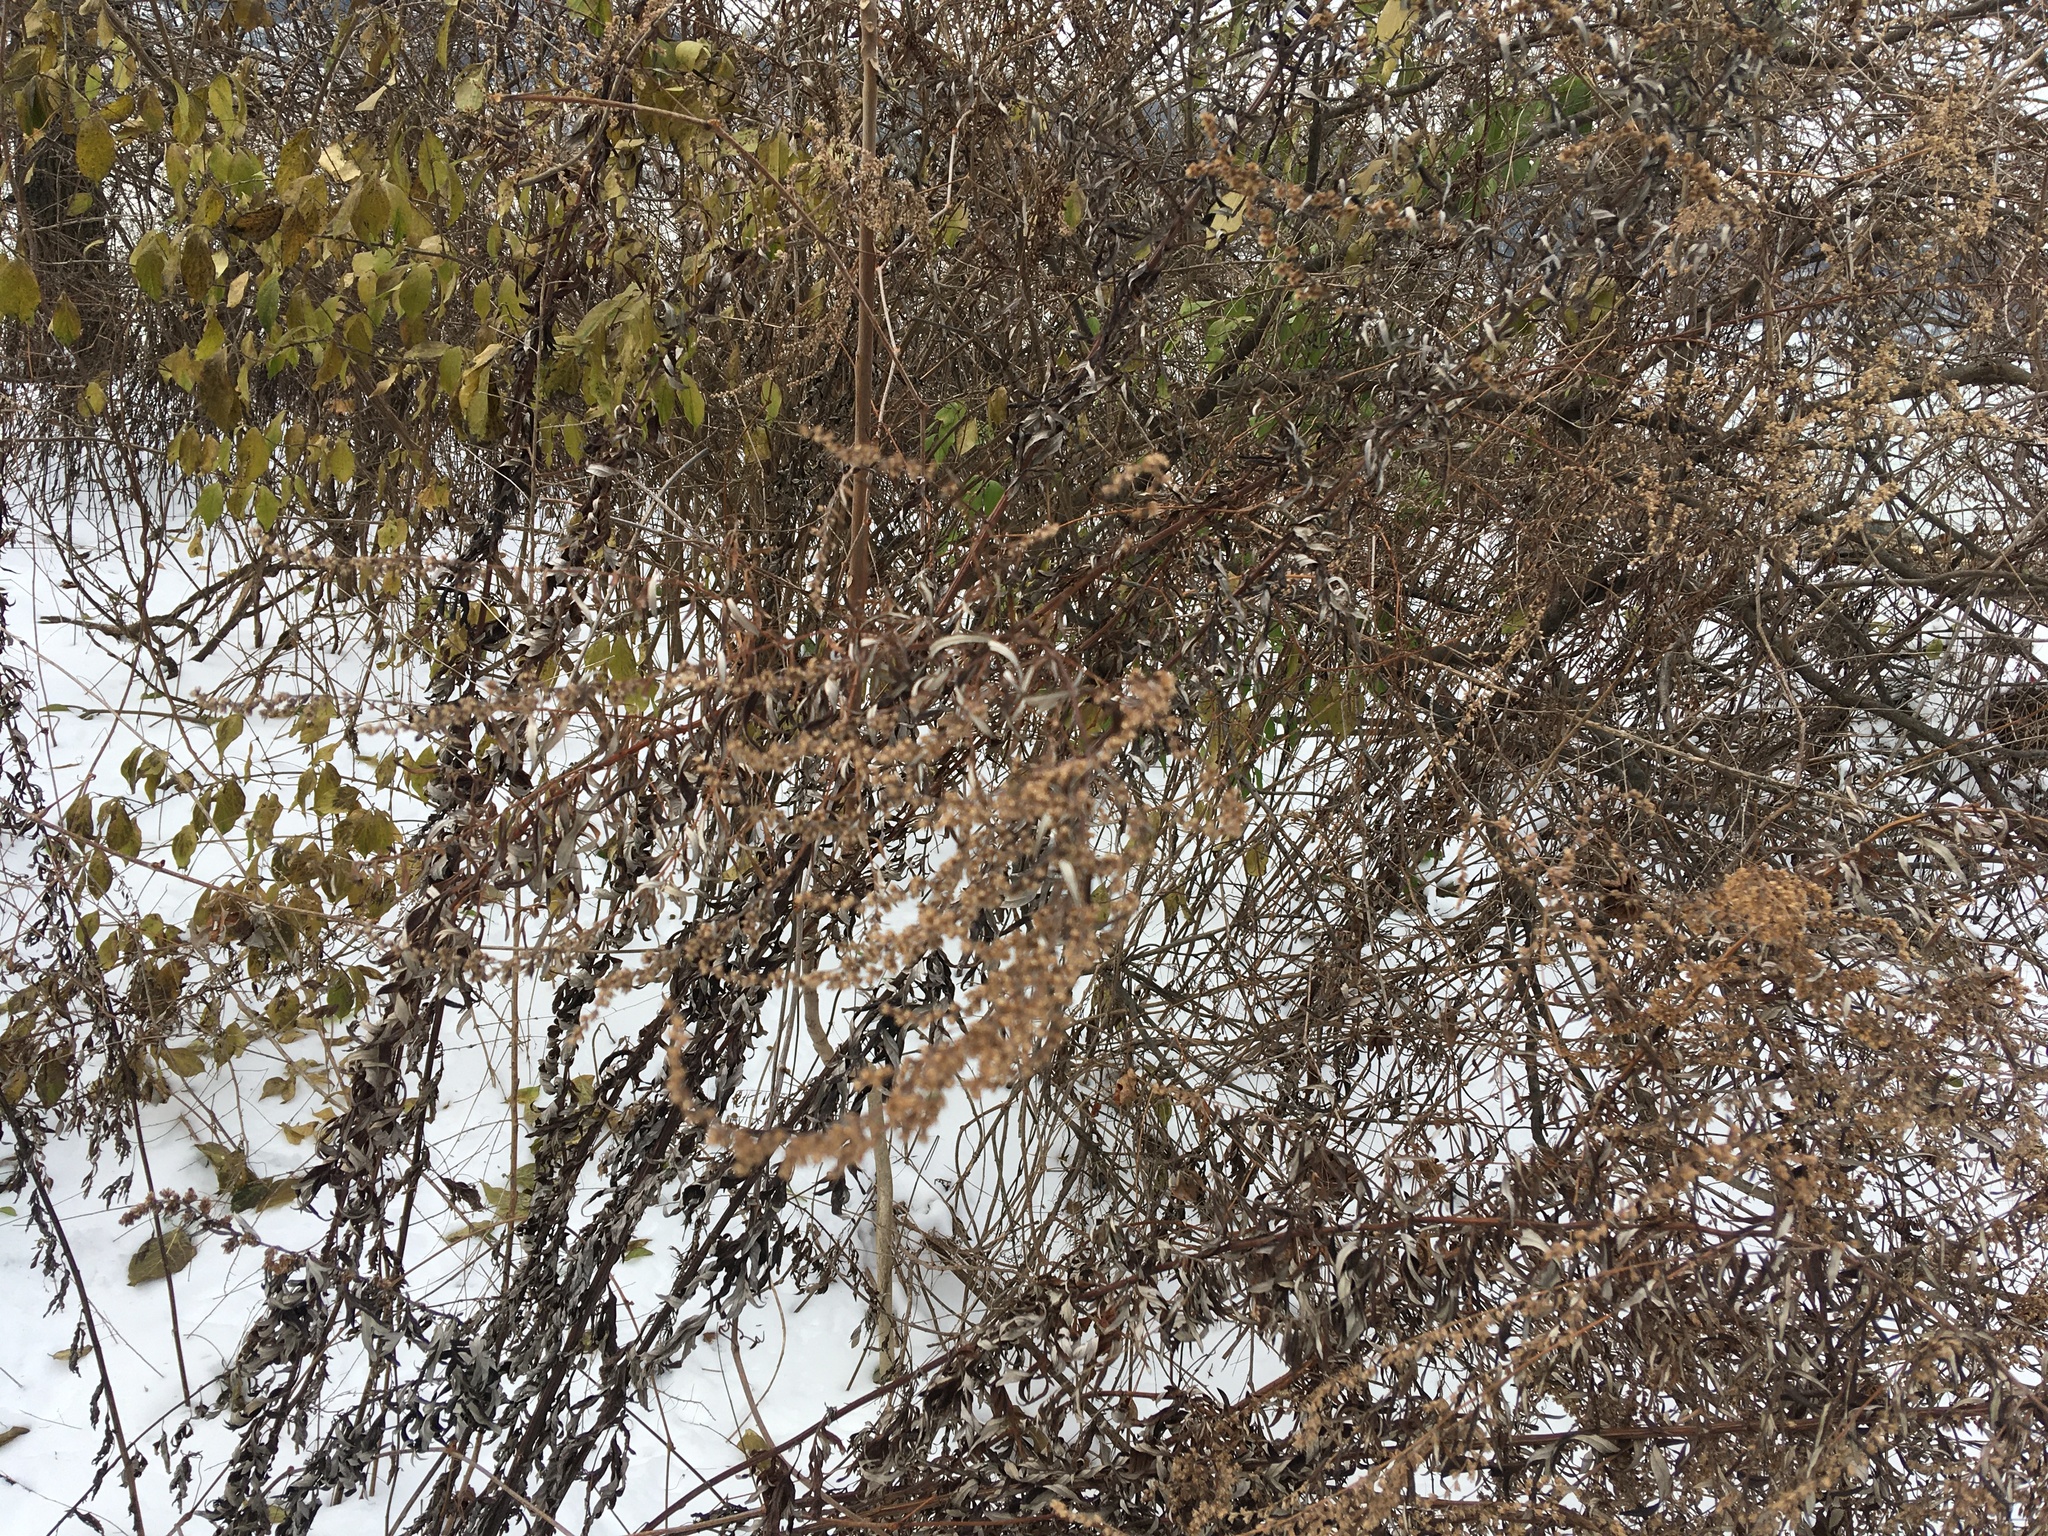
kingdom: Plantae
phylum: Tracheophyta
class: Magnoliopsida
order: Asterales
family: Asteraceae
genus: Artemisia
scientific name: Artemisia vulgaris
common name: Mugwort
